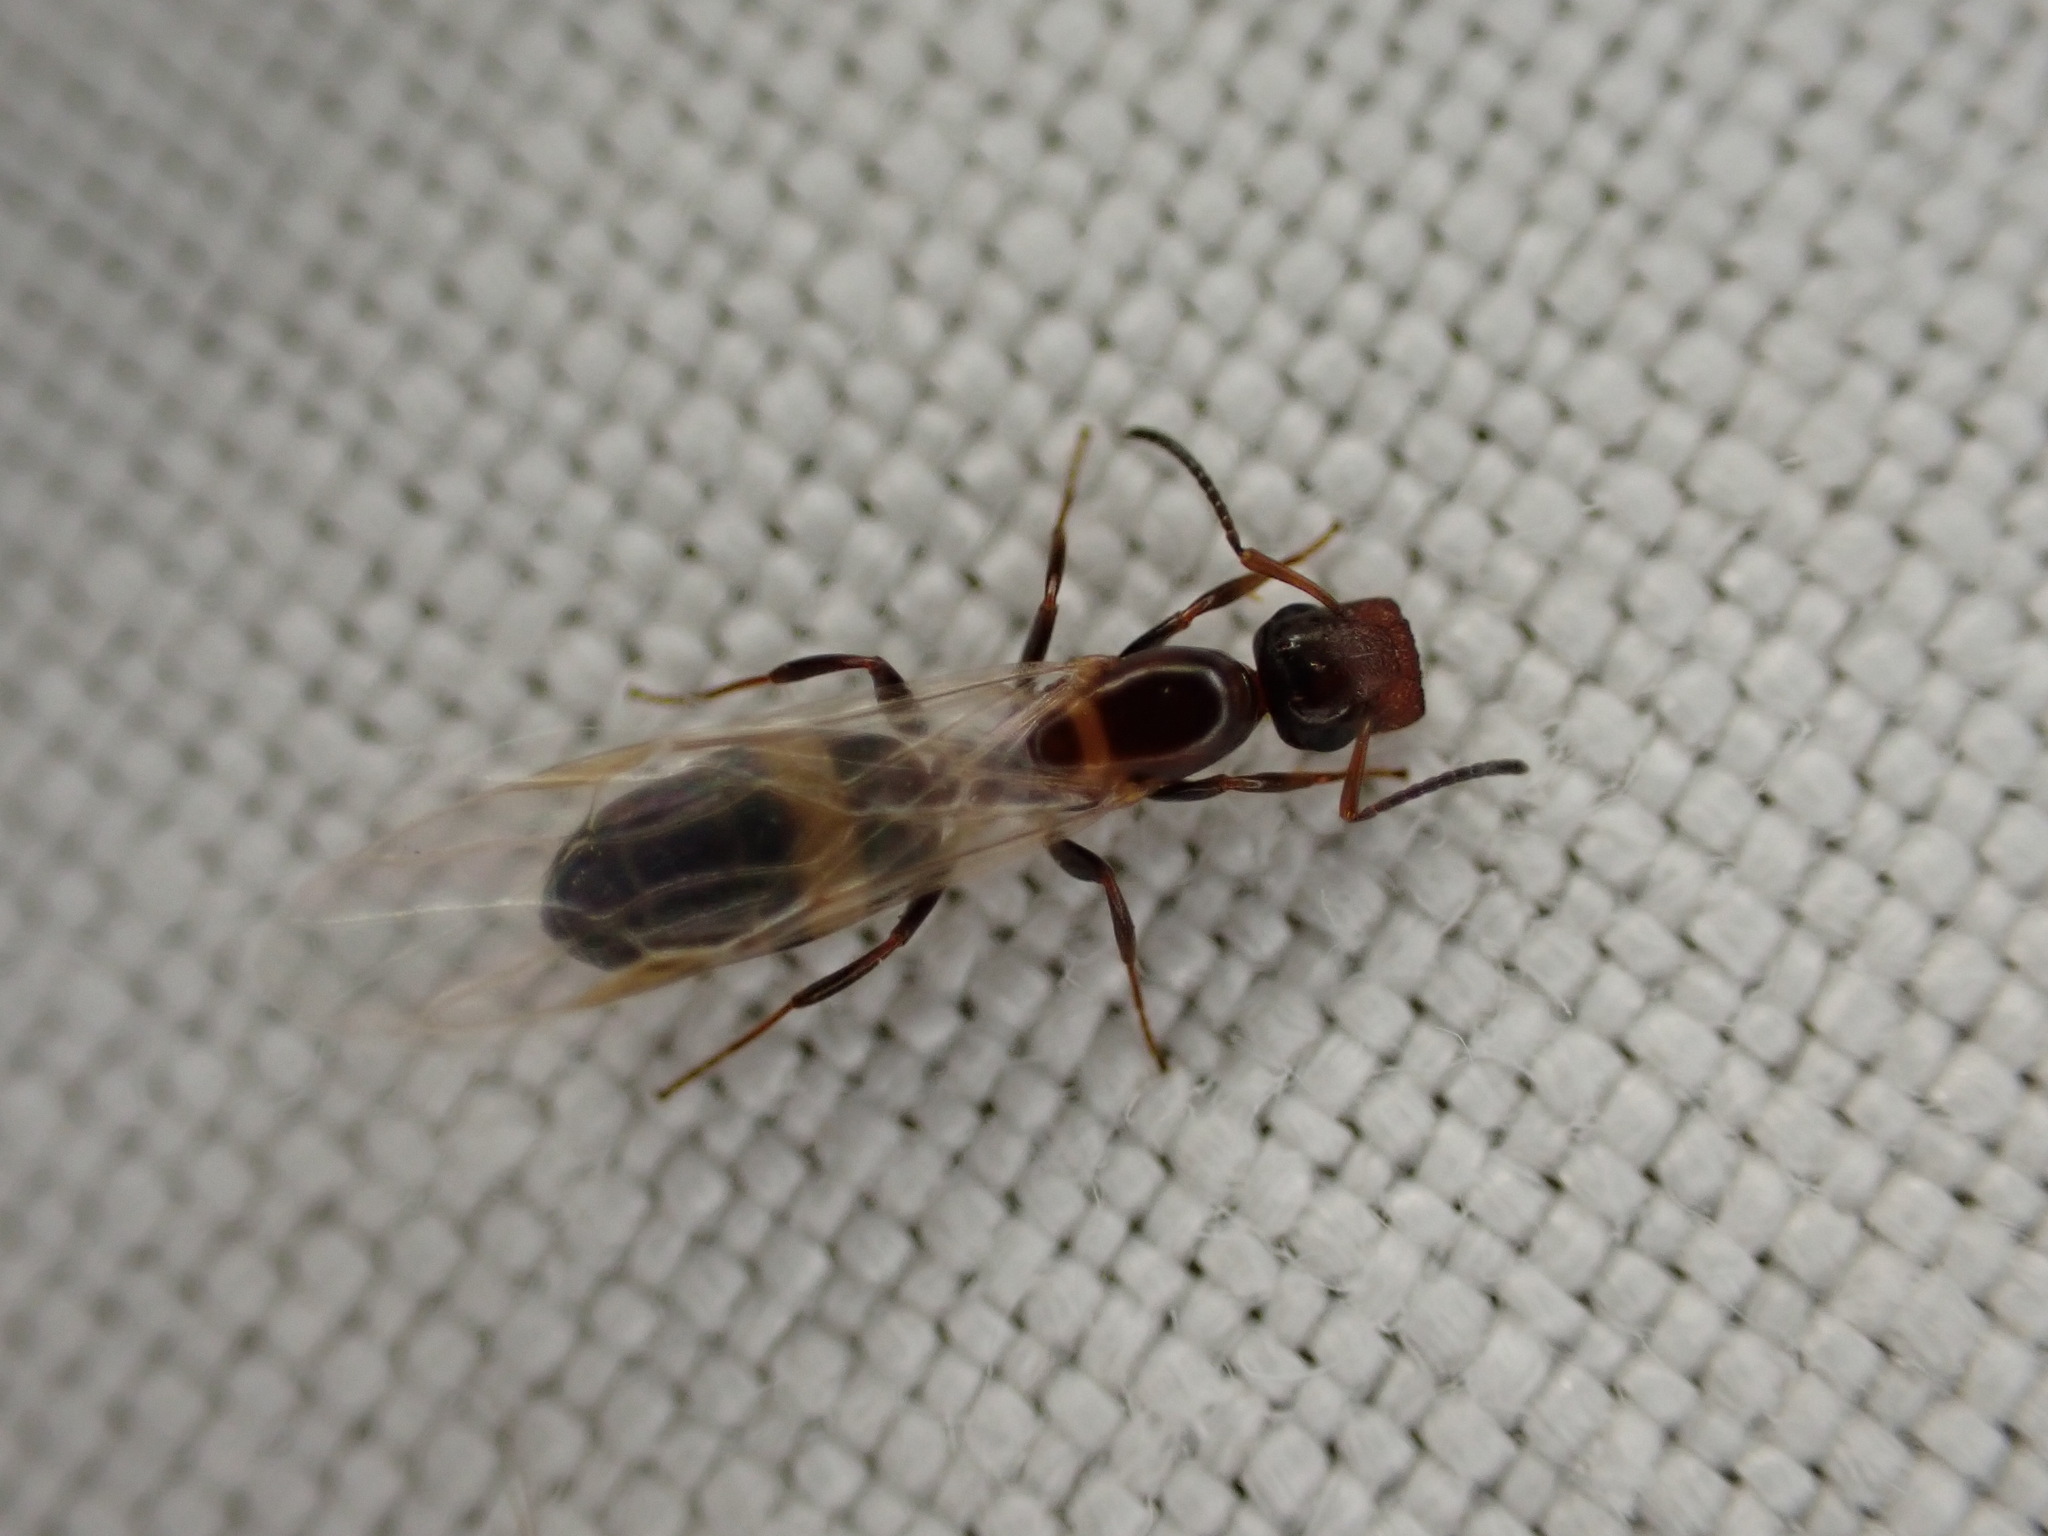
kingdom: Animalia
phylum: Arthropoda
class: Insecta
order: Hymenoptera
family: Formicidae
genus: Camponotus
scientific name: Camponotus truncatus
